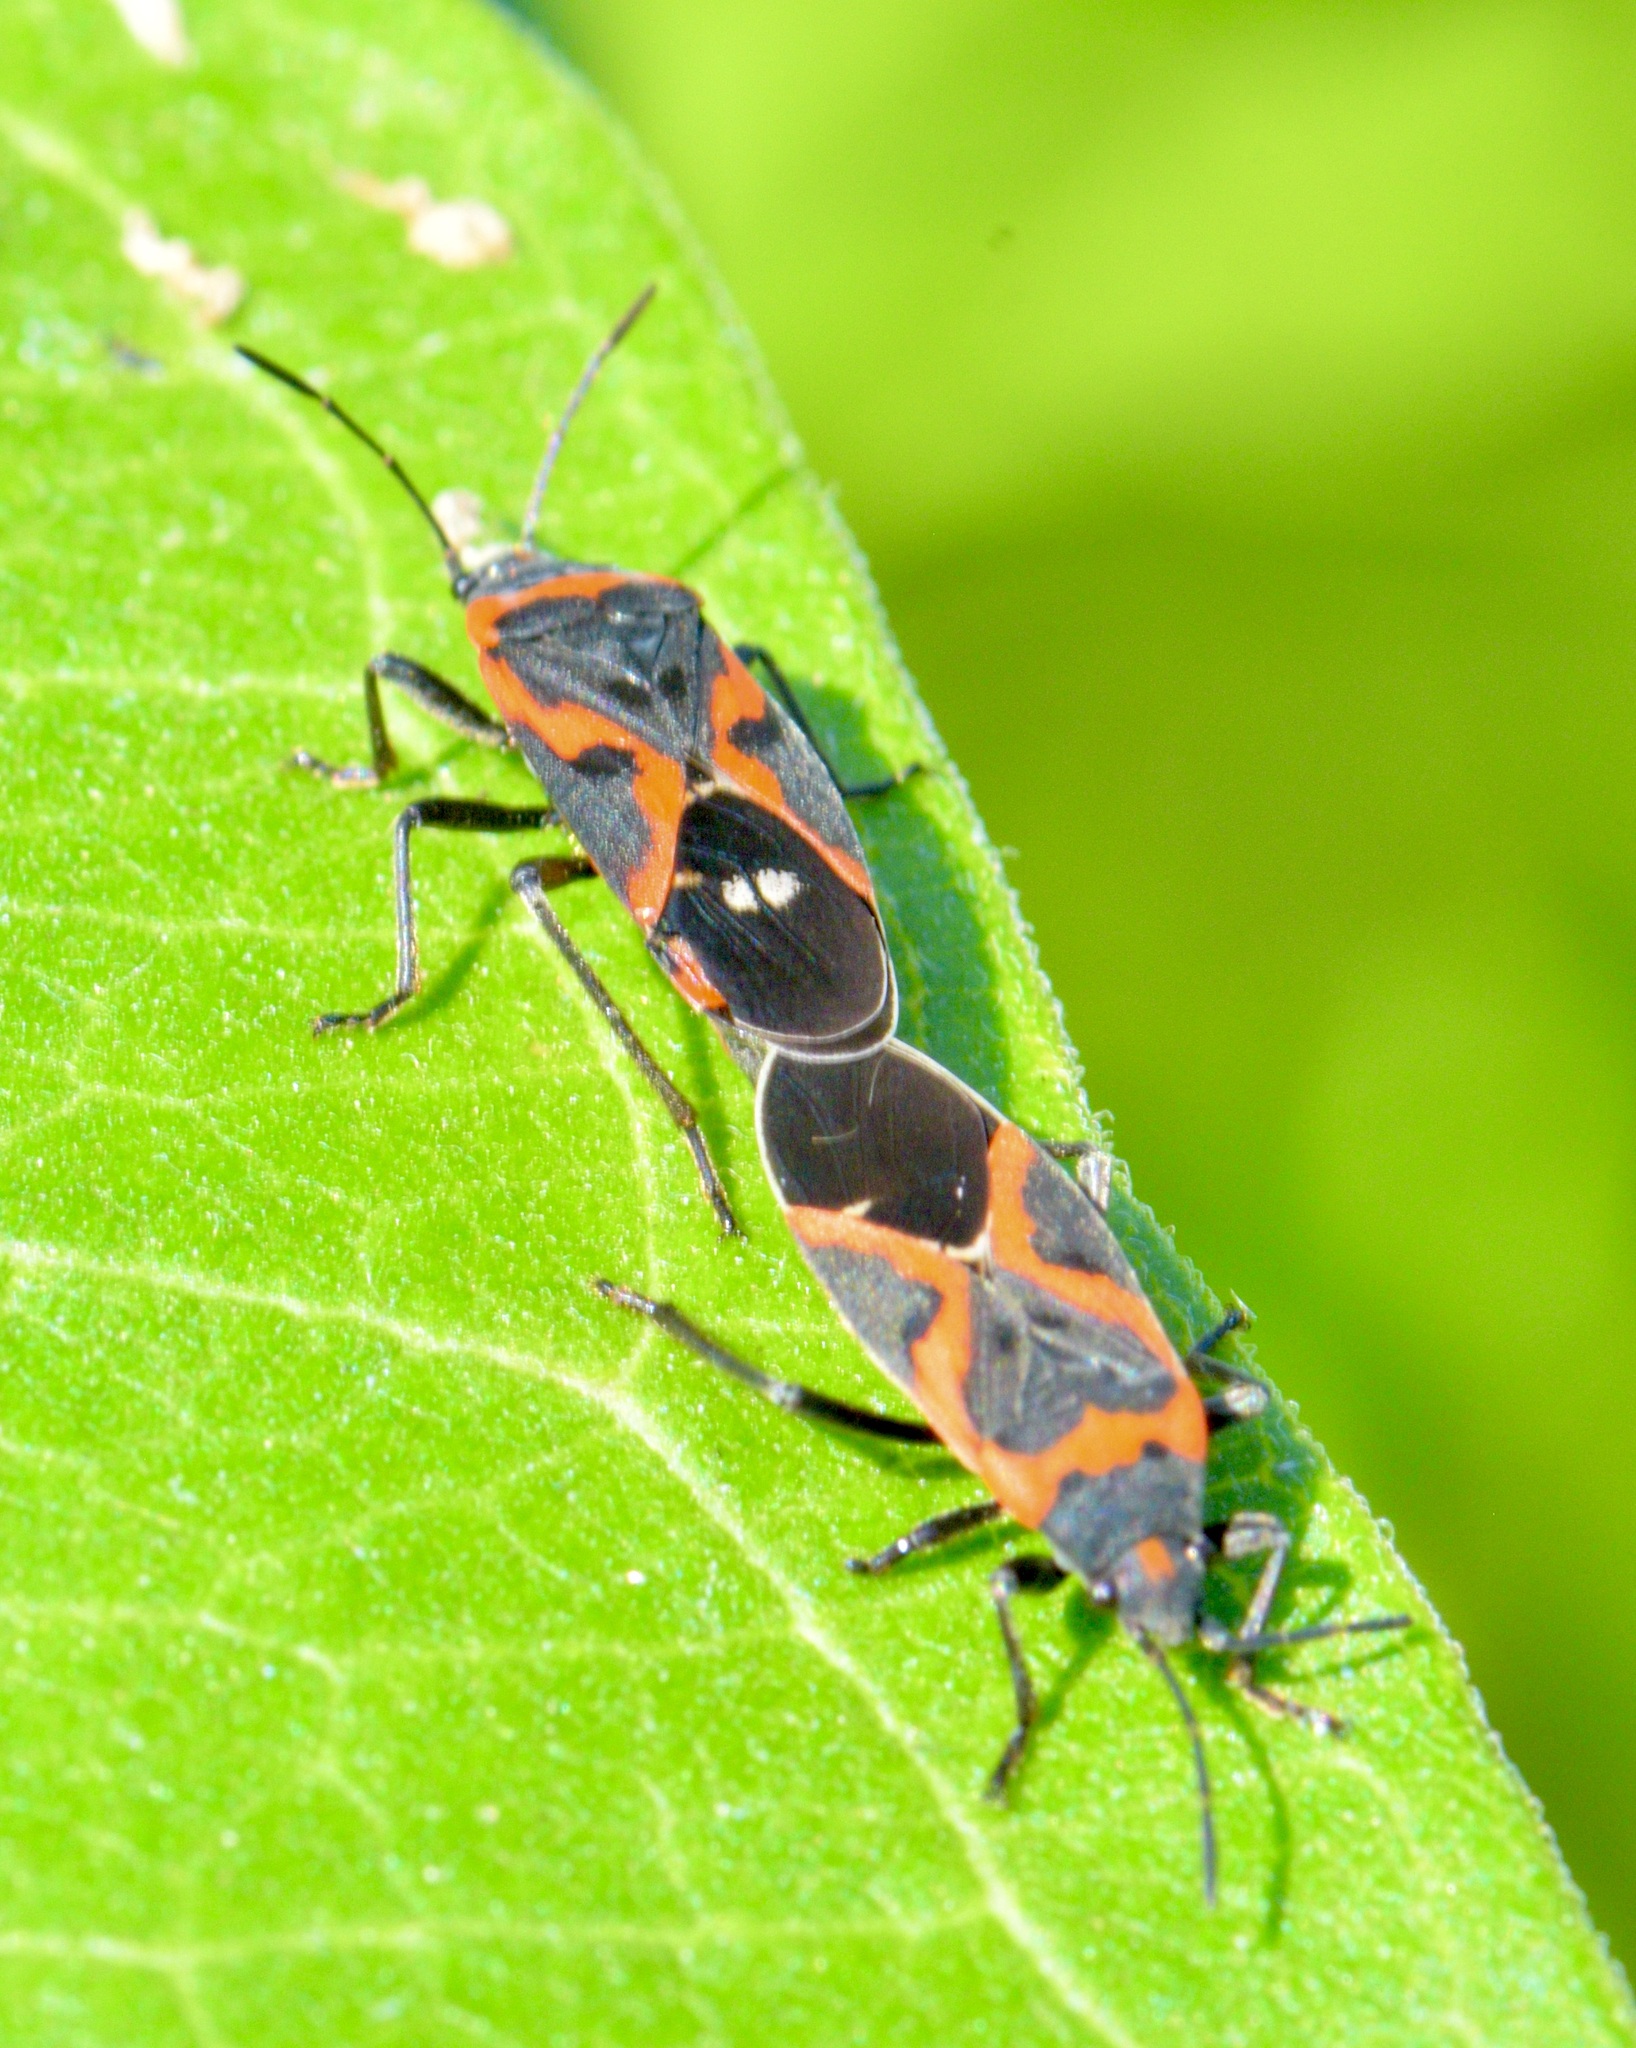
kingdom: Animalia
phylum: Arthropoda
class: Insecta
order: Hemiptera
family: Lygaeidae
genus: Lygaeus
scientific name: Lygaeus kalmii
